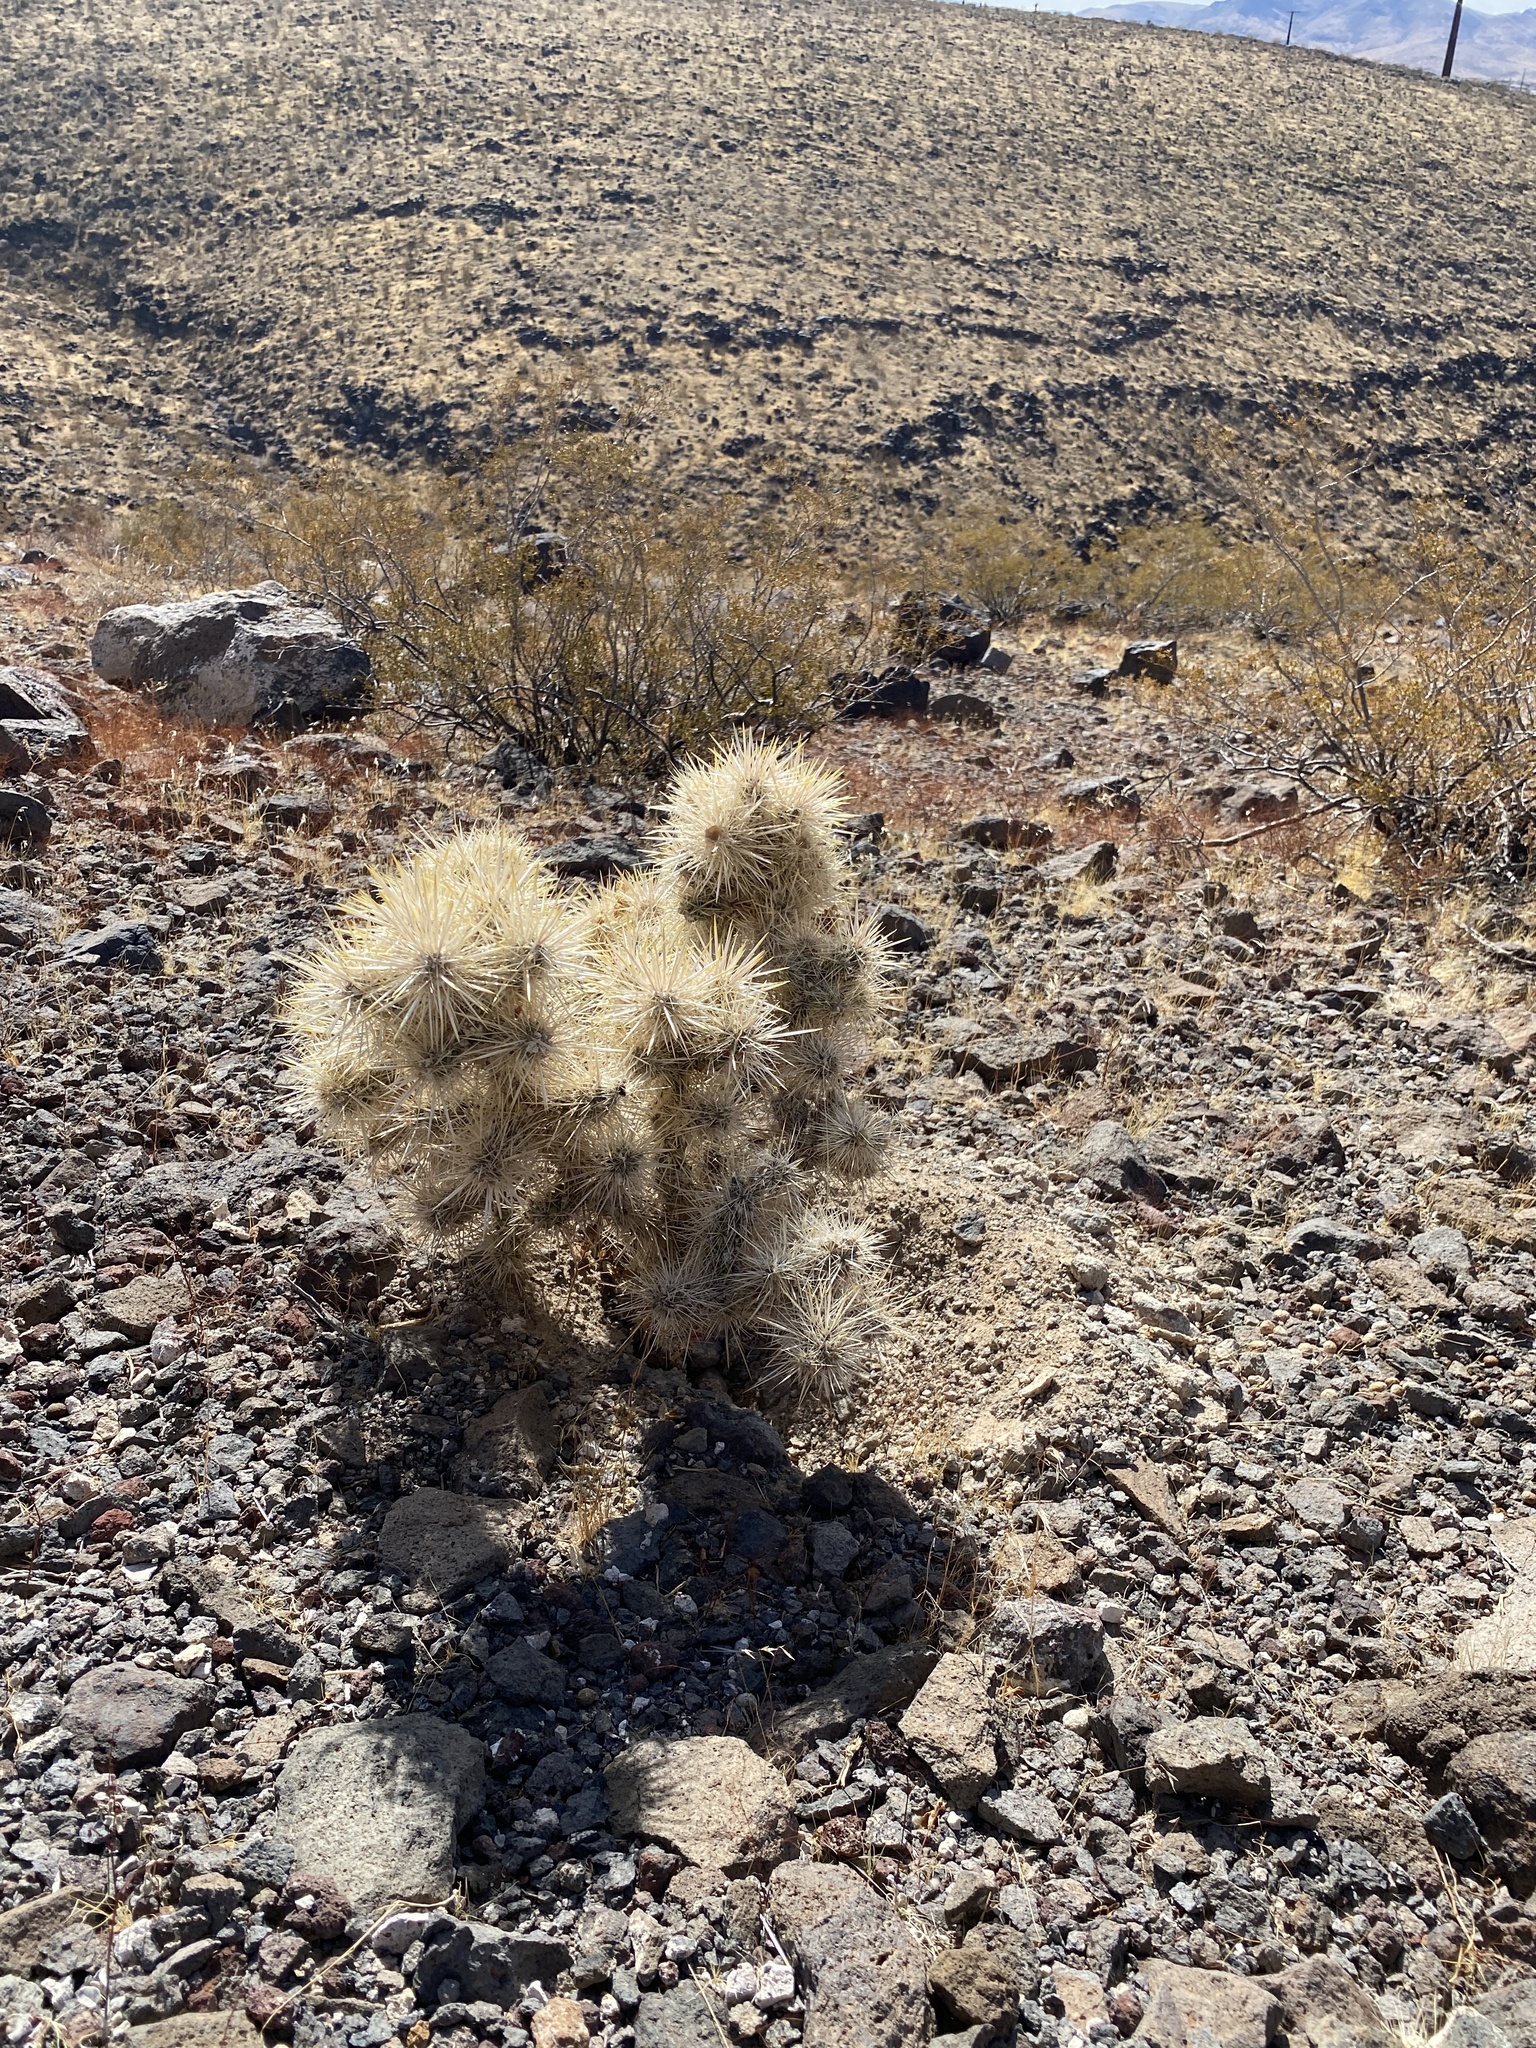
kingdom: Plantae
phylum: Tracheophyta
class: Magnoliopsida
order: Caryophyllales
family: Cactaceae
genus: Cylindropuntia
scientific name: Cylindropuntia echinocarpa
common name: Ground cholla
